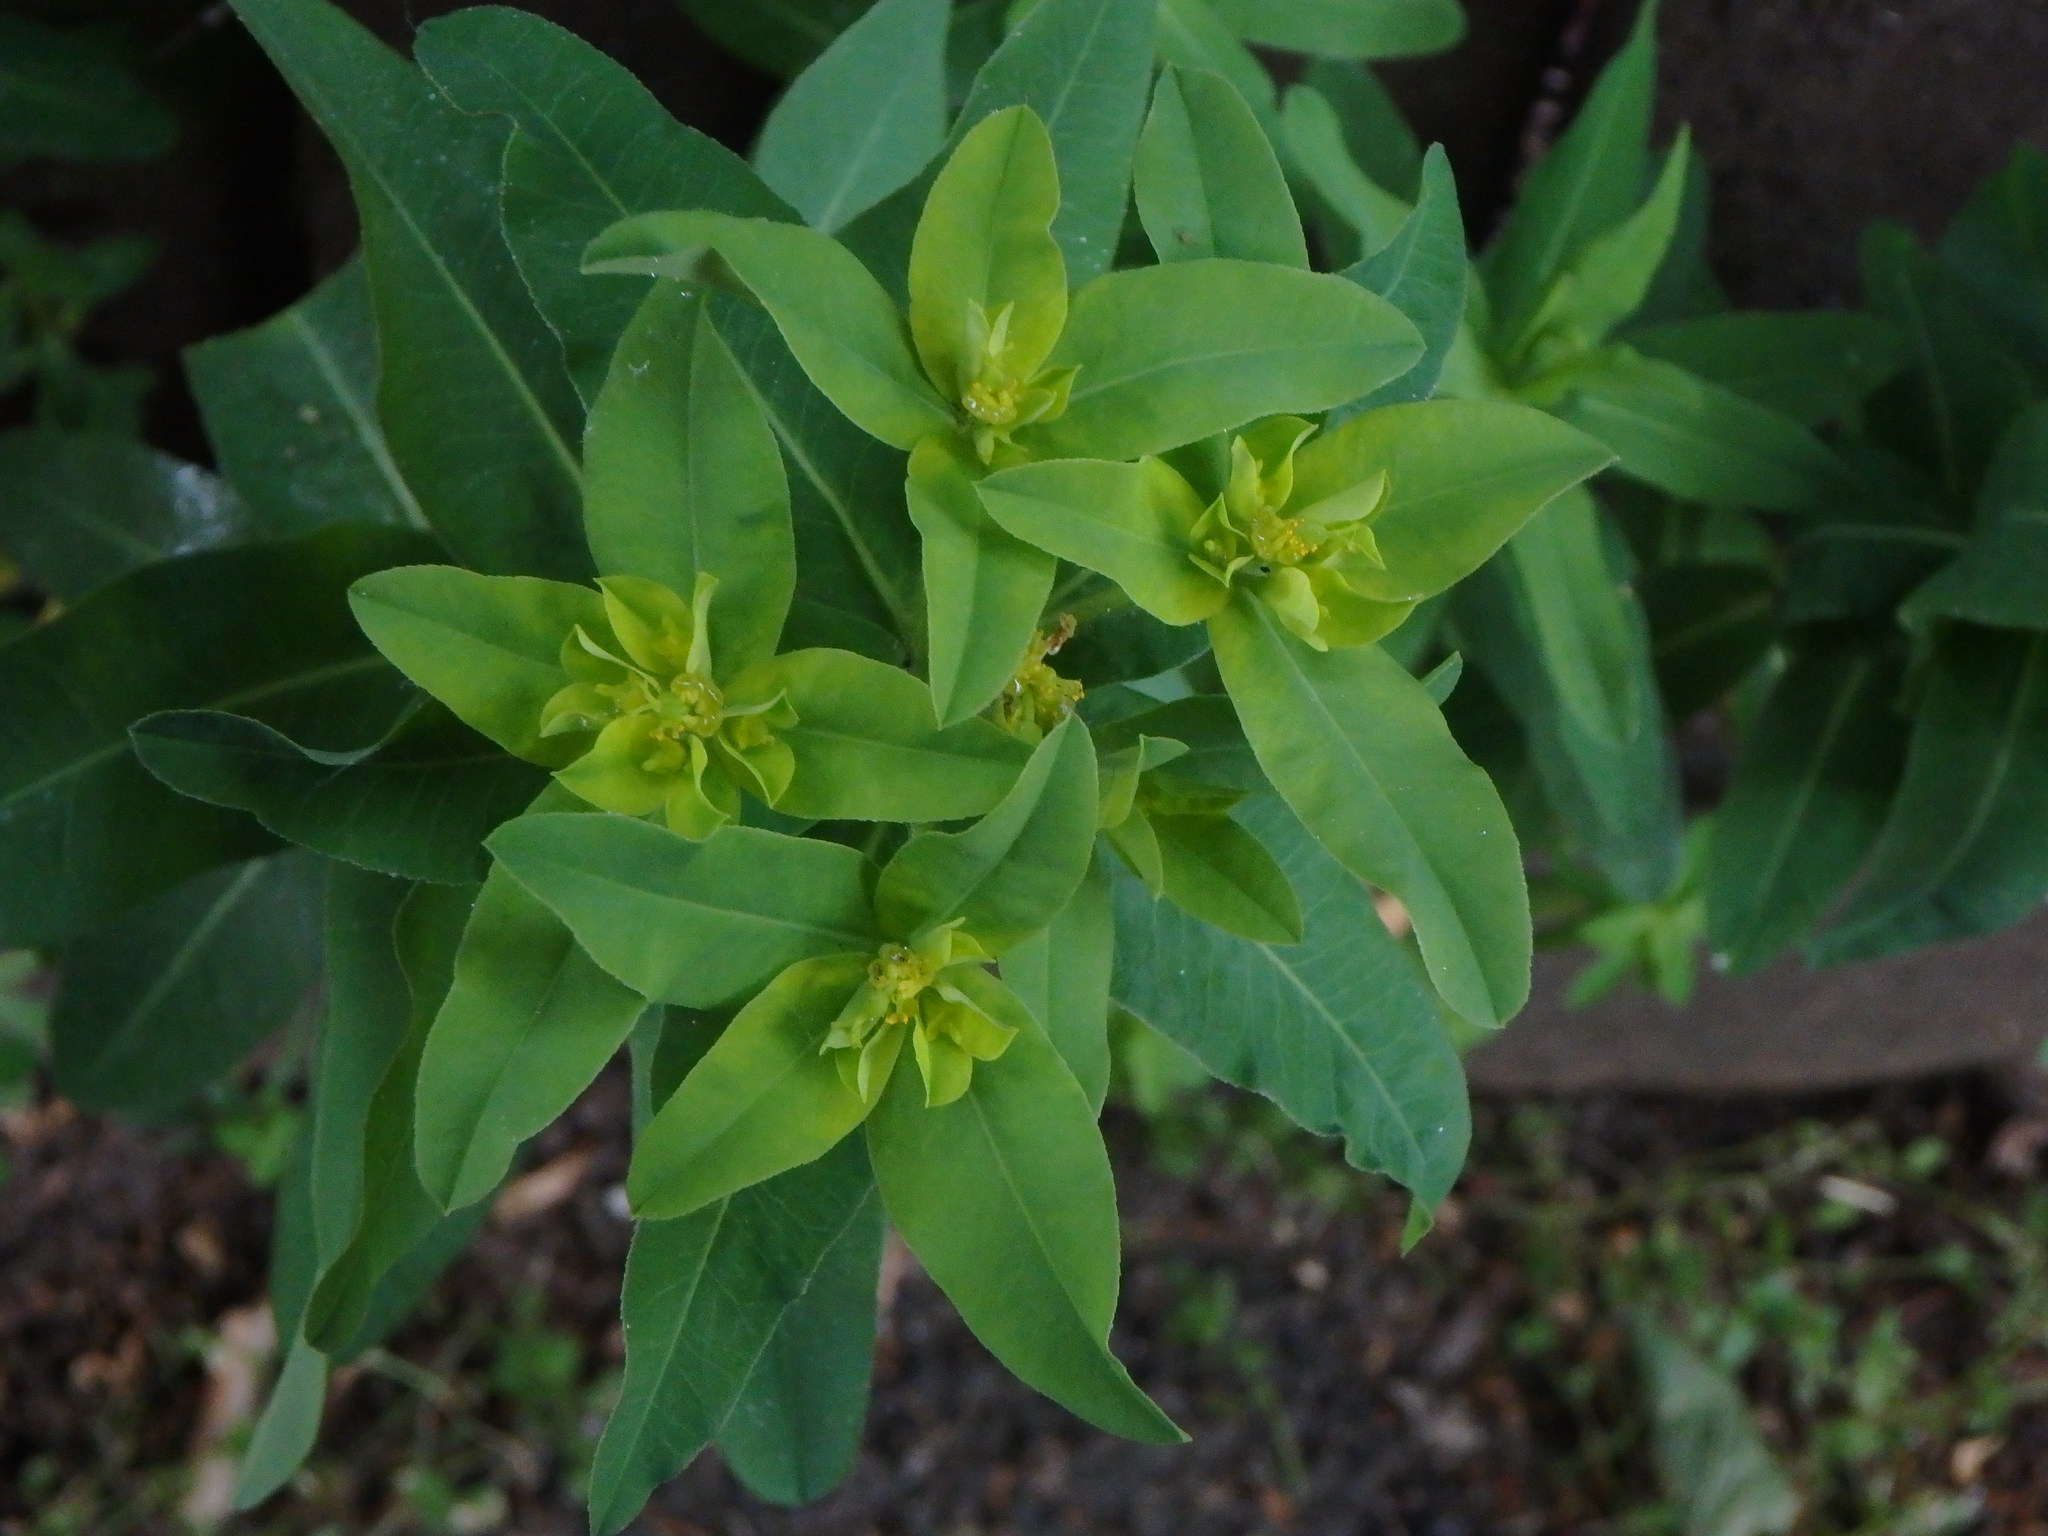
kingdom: Plantae
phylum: Tracheophyta
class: Magnoliopsida
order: Malpighiales
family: Euphorbiaceae
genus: Euphorbia
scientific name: Euphorbia oblongata
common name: Balkan spurge
